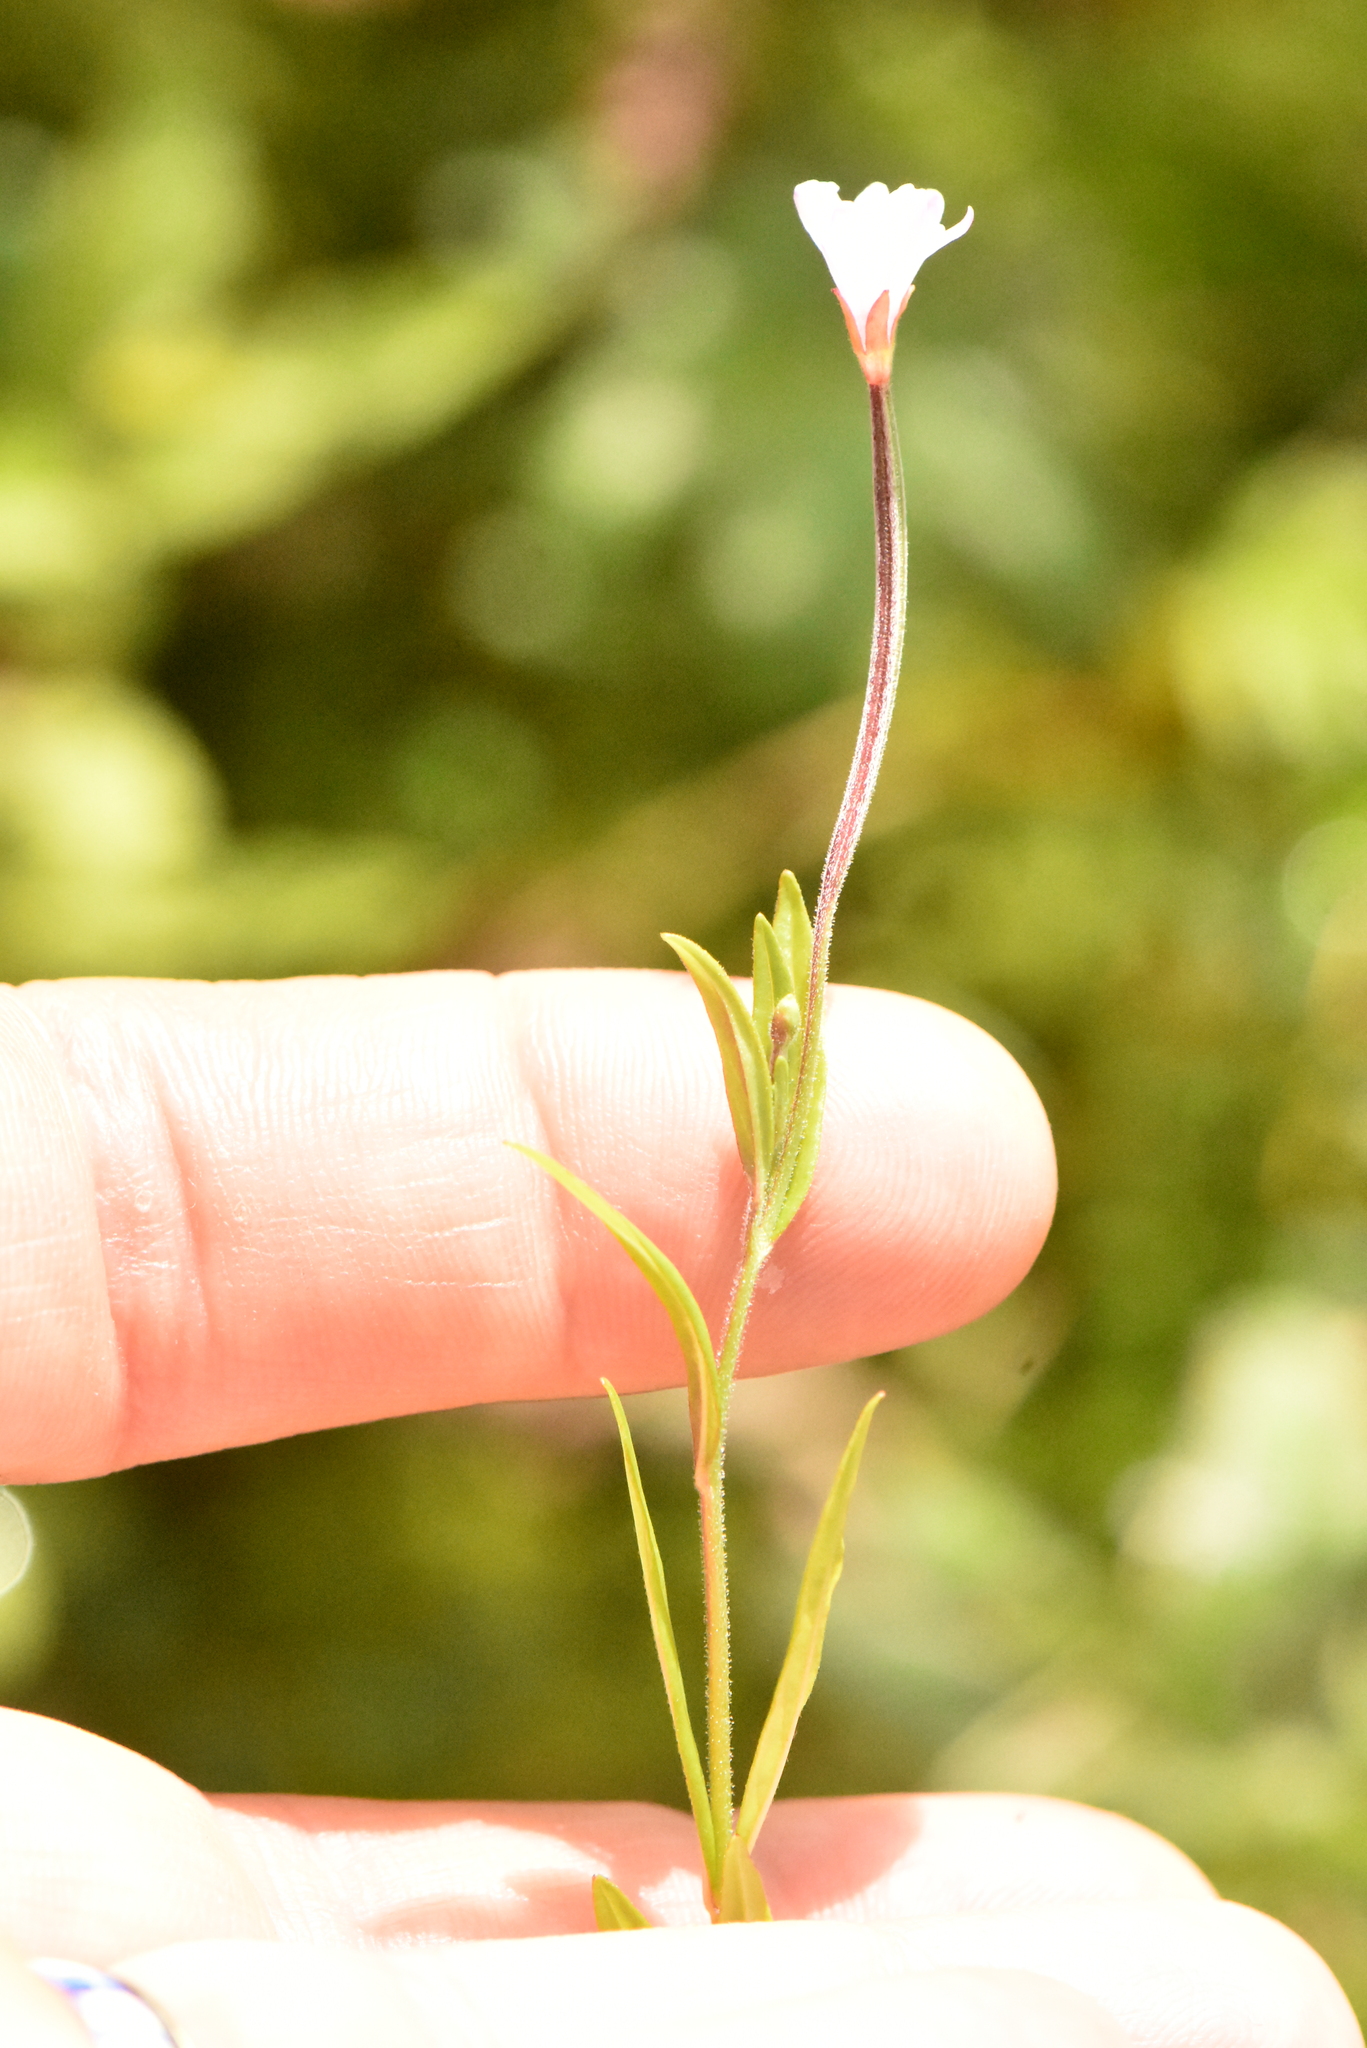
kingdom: Plantae
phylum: Tracheophyta
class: Magnoliopsida
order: Myrtales
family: Onagraceae
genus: Epilobium
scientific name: Epilobium palustre
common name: Marsh willowherb
